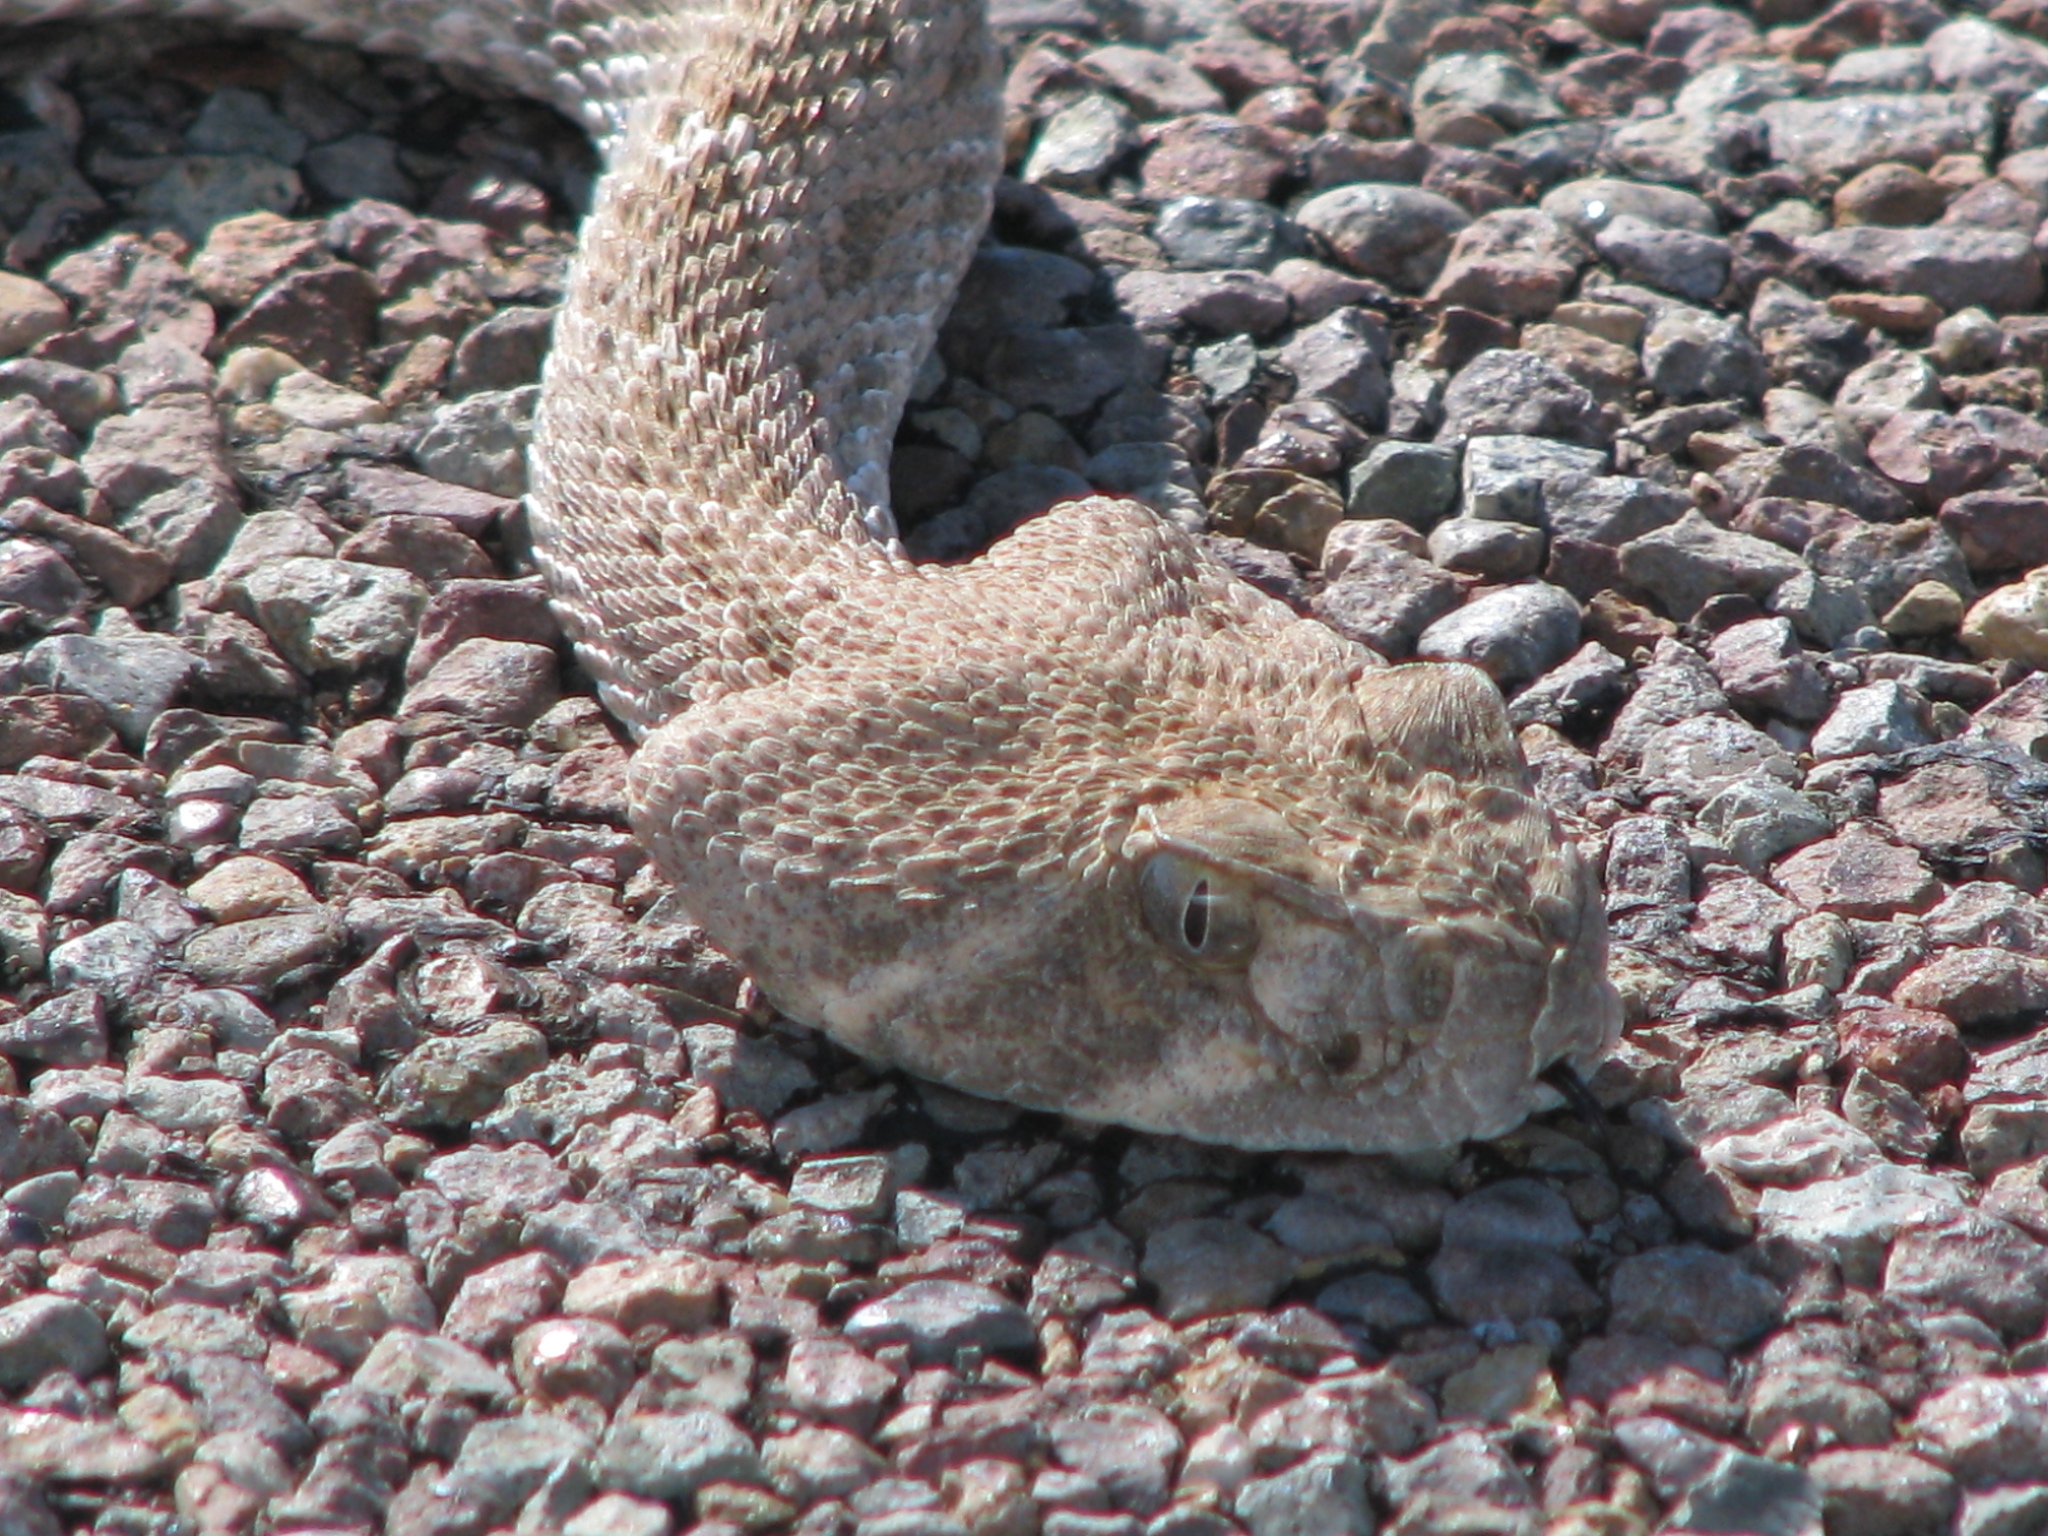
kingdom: Animalia
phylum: Chordata
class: Squamata
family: Viperidae
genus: Crotalus
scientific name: Crotalus atrox
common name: Western diamond-backed rattlesnake
